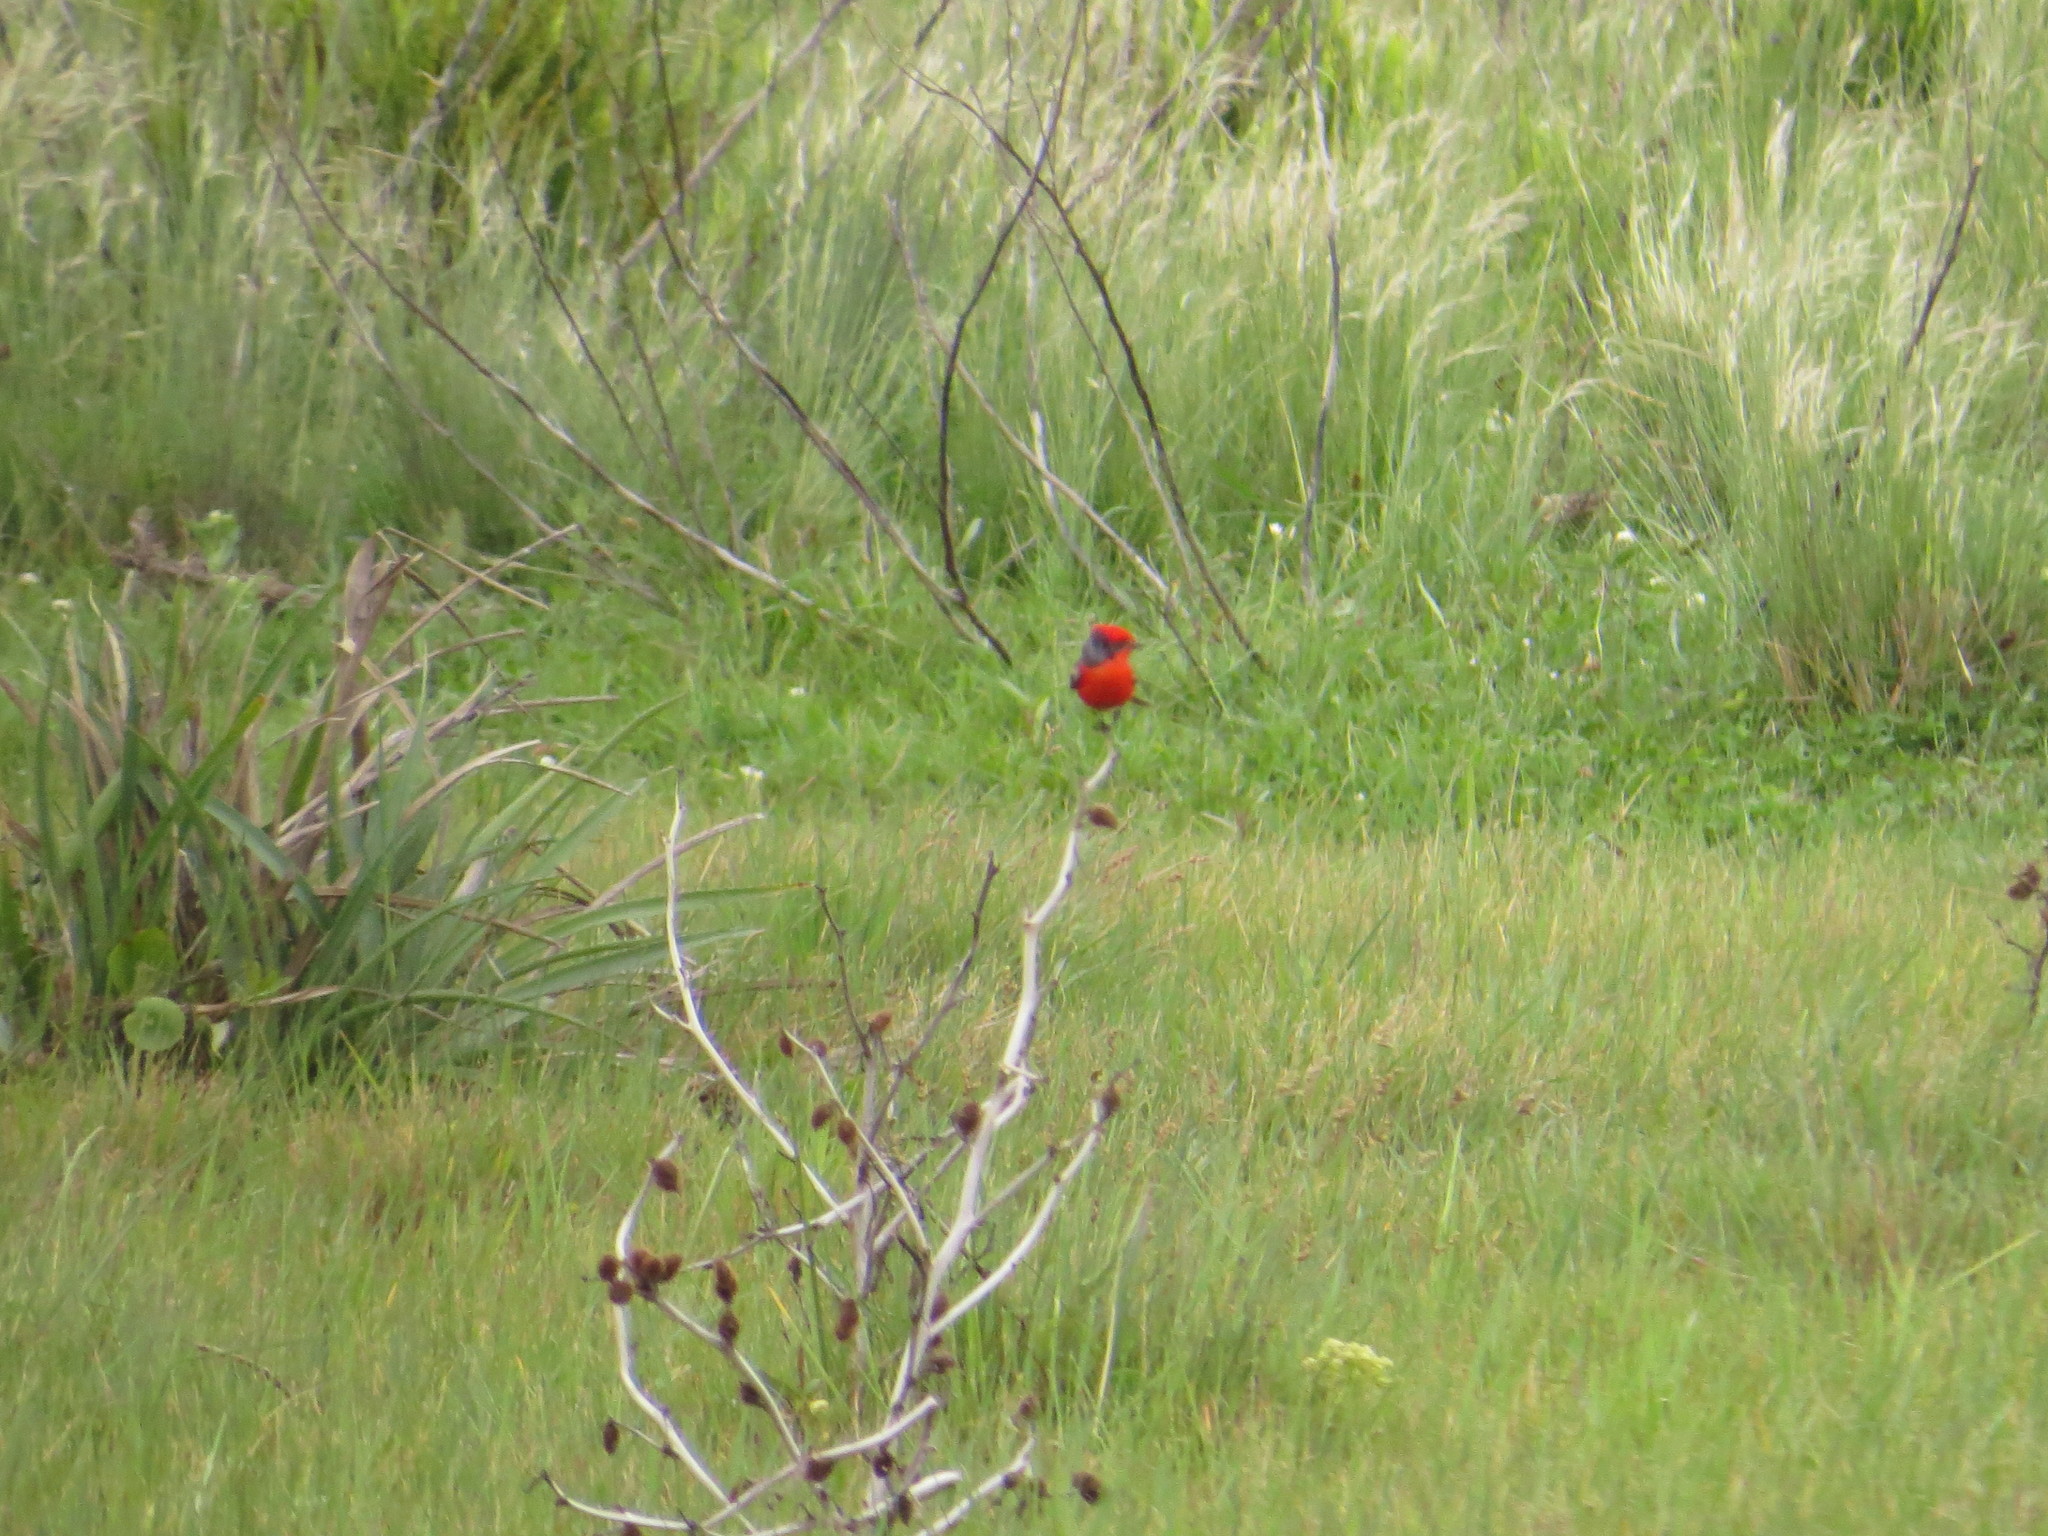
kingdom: Animalia
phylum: Chordata
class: Aves
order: Passeriformes
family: Tyrannidae
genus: Pyrocephalus
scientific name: Pyrocephalus rubinus
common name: Vermilion flycatcher
